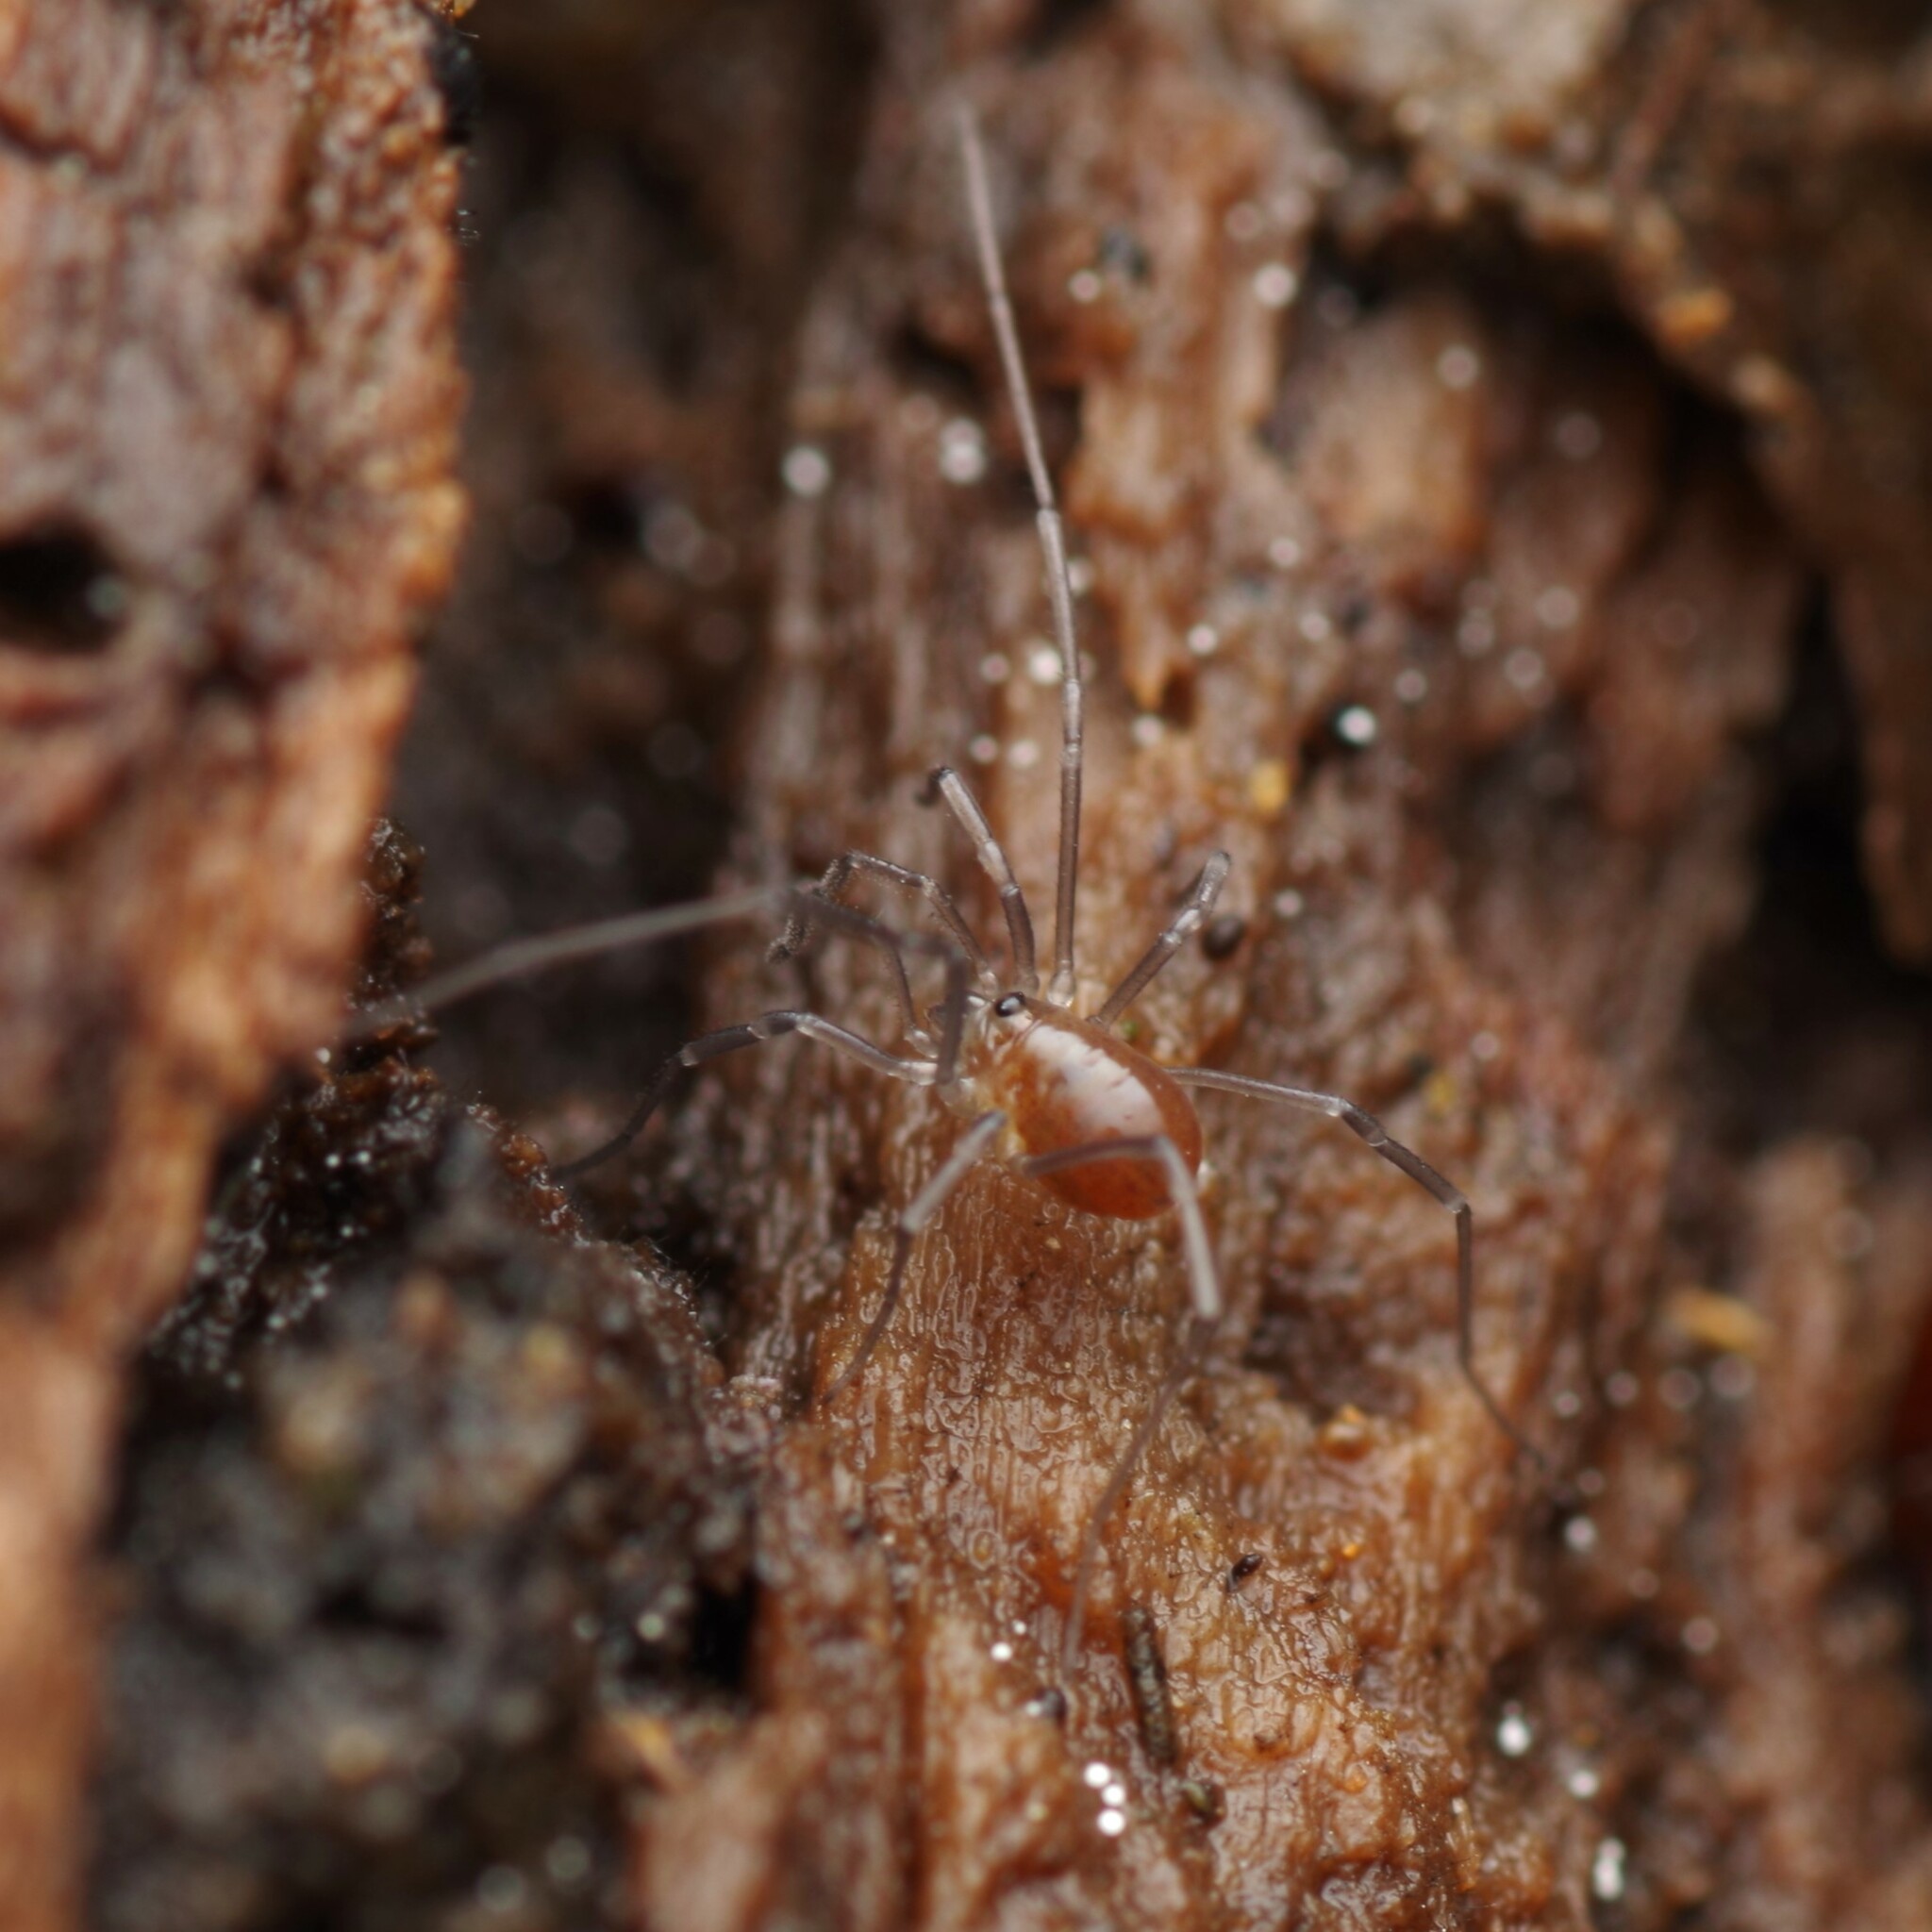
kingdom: Animalia
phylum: Arthropoda
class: Arachnida
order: Opiliones
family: Nemastomatidae
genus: Mitostoma
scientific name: Mitostoma chrysomelas
